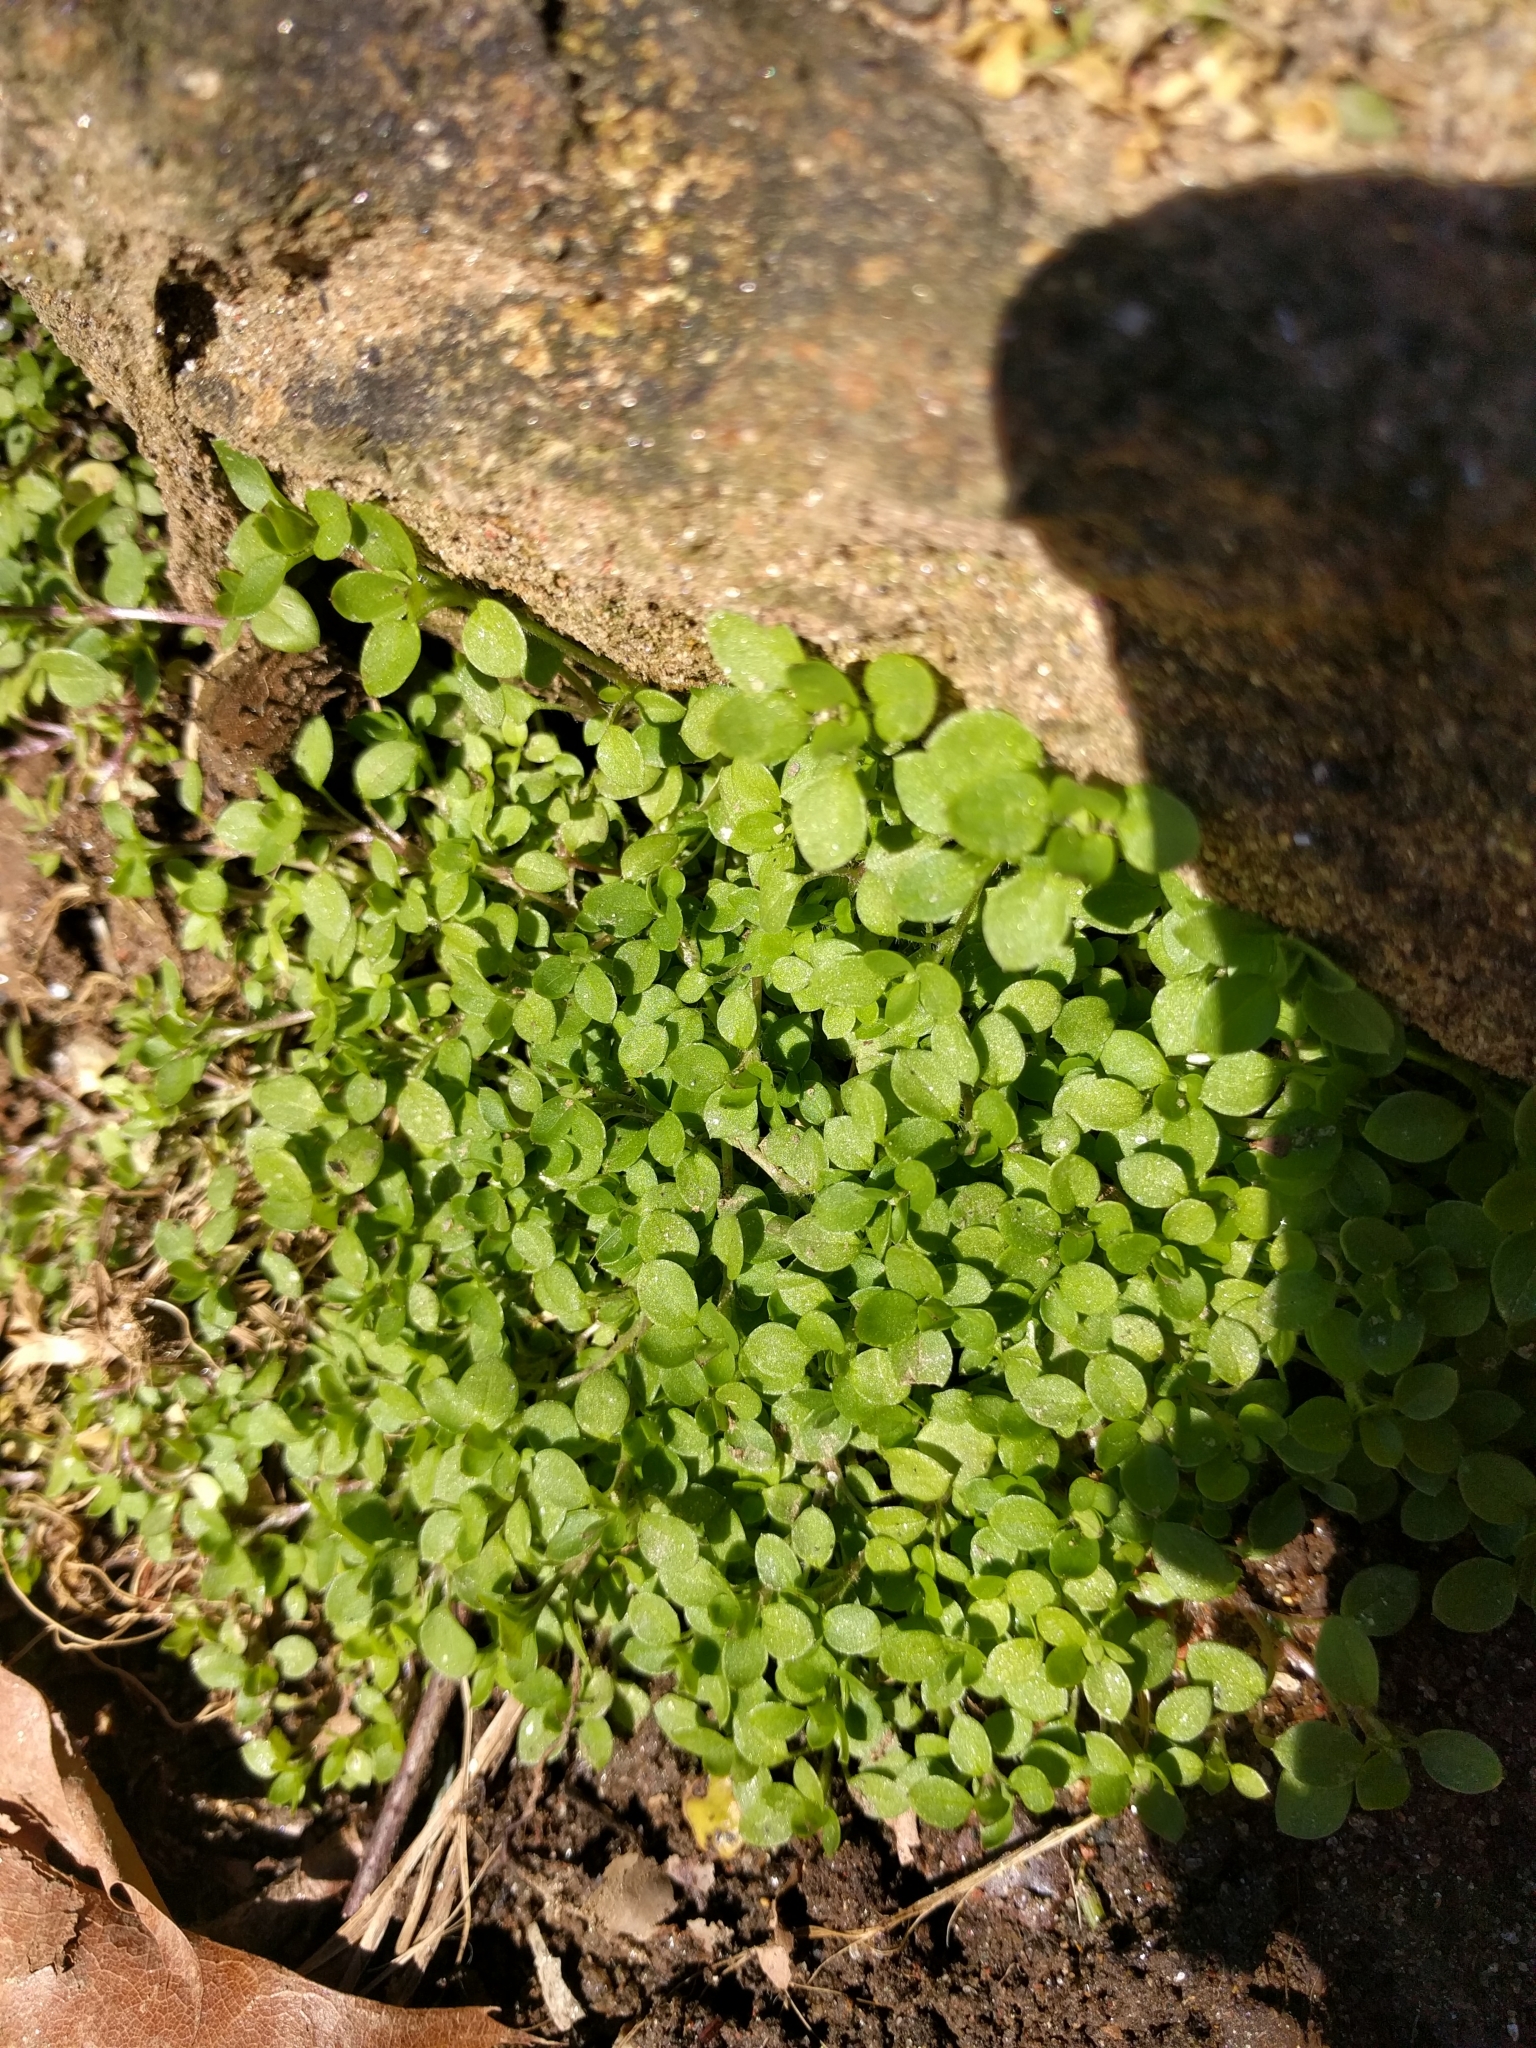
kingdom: Plantae
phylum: Tracheophyta
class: Magnoliopsida
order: Caryophyllales
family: Caryophyllaceae
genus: Stellaria
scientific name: Stellaria media
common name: Common chickweed
